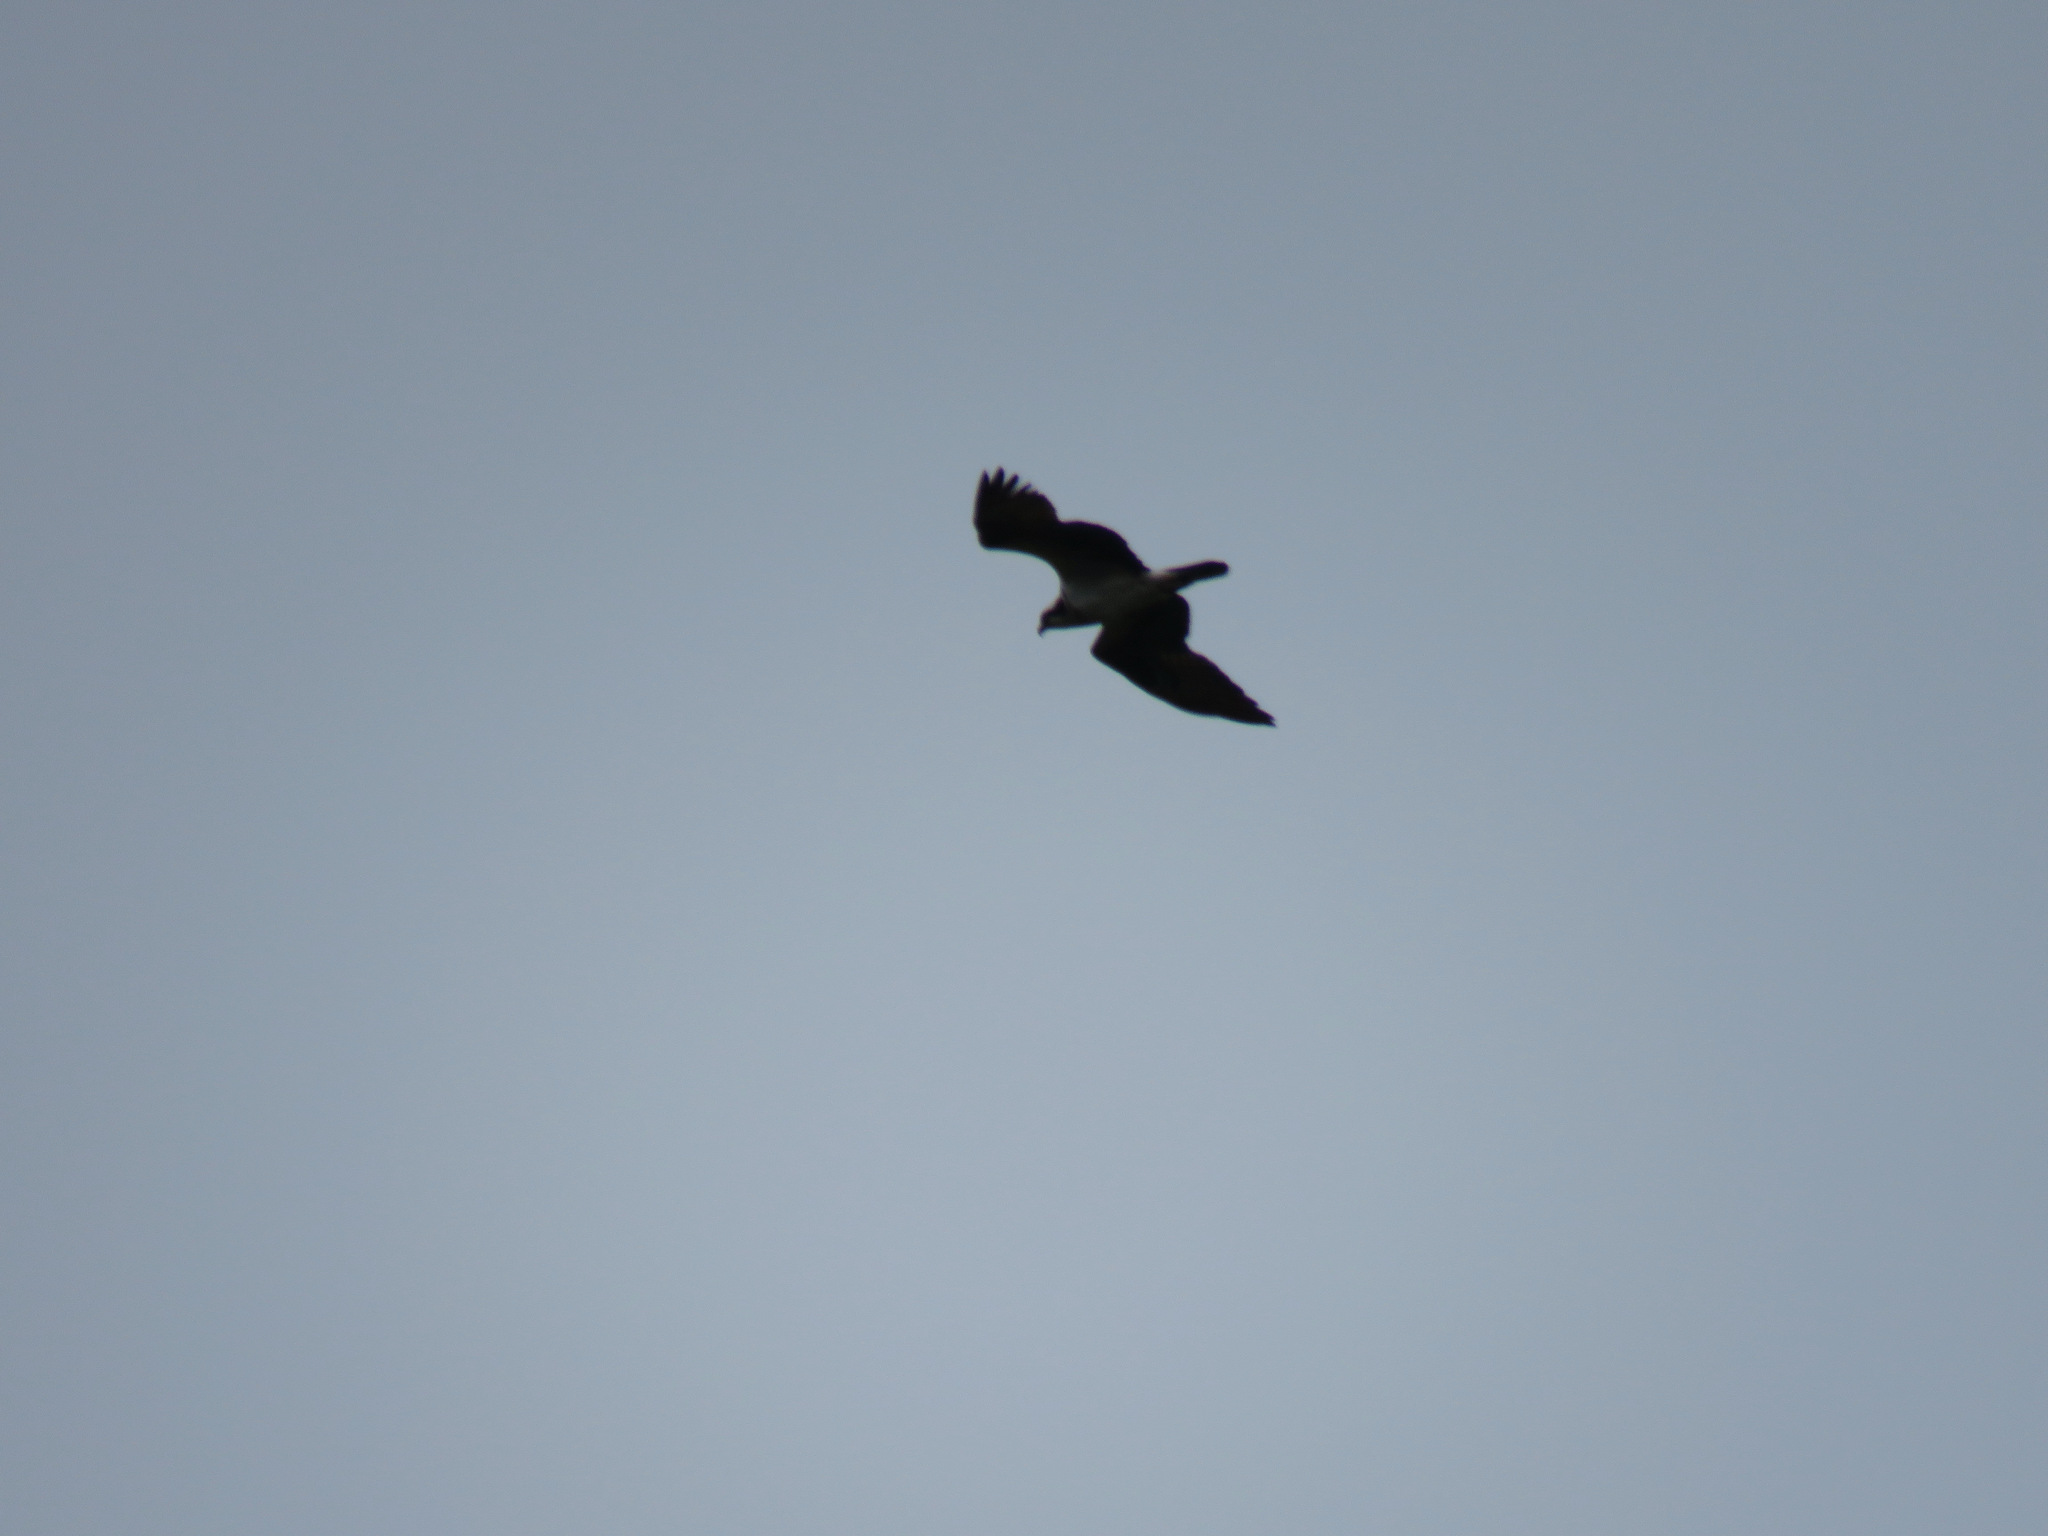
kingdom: Animalia
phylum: Chordata
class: Aves
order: Accipitriformes
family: Pandionidae
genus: Pandion
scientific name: Pandion haliaetus
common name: Osprey
